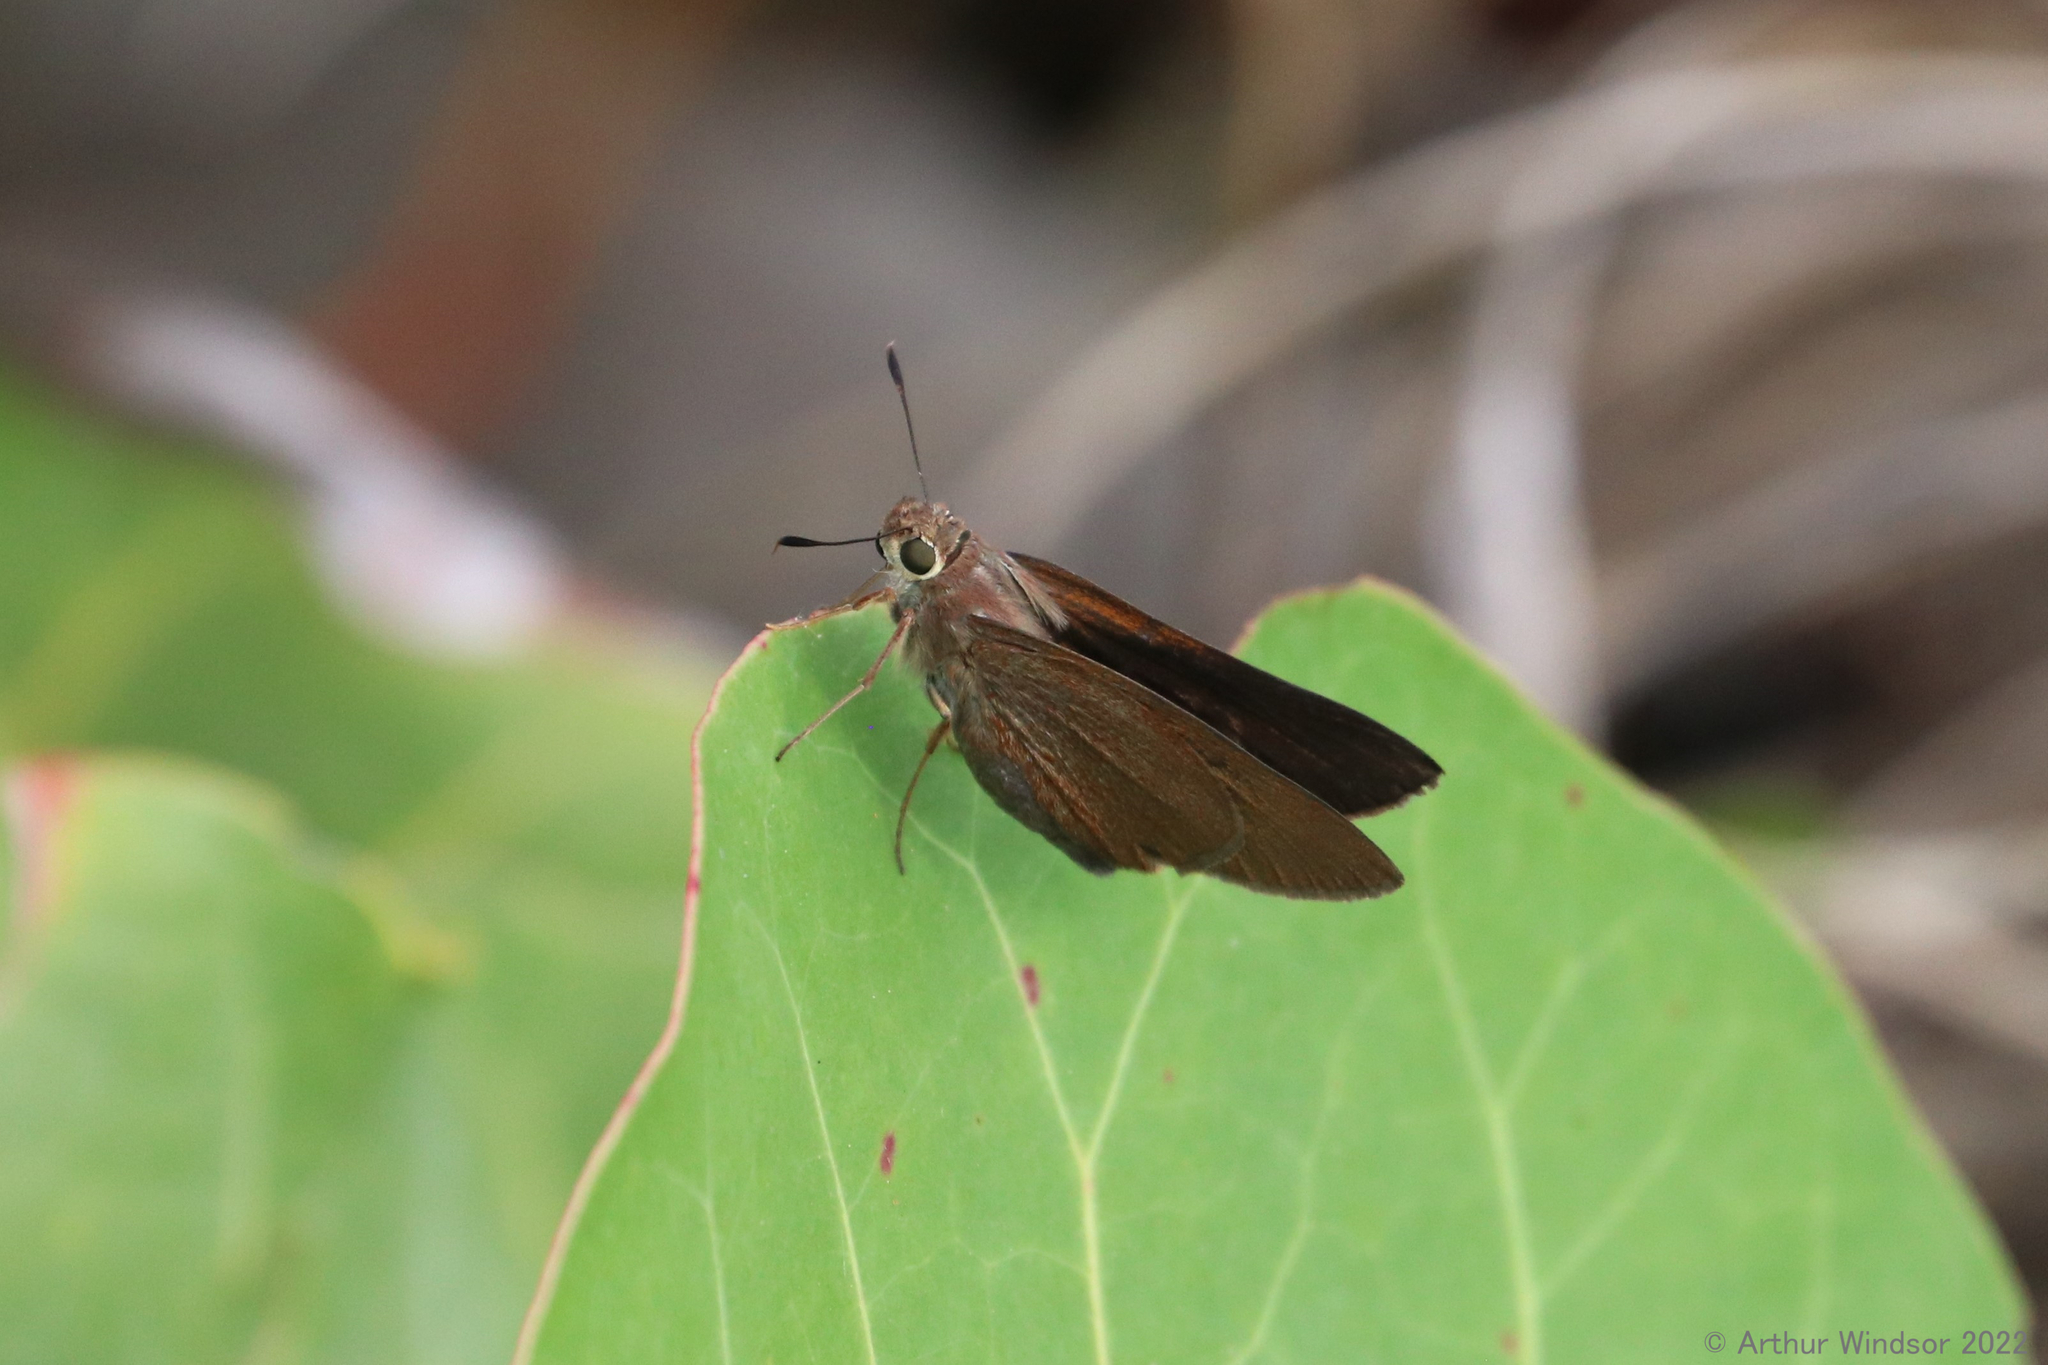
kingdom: Animalia
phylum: Arthropoda
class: Insecta
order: Lepidoptera
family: Hesperiidae
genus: Asbolis
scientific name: Asbolis capucinus
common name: Monk skipper
